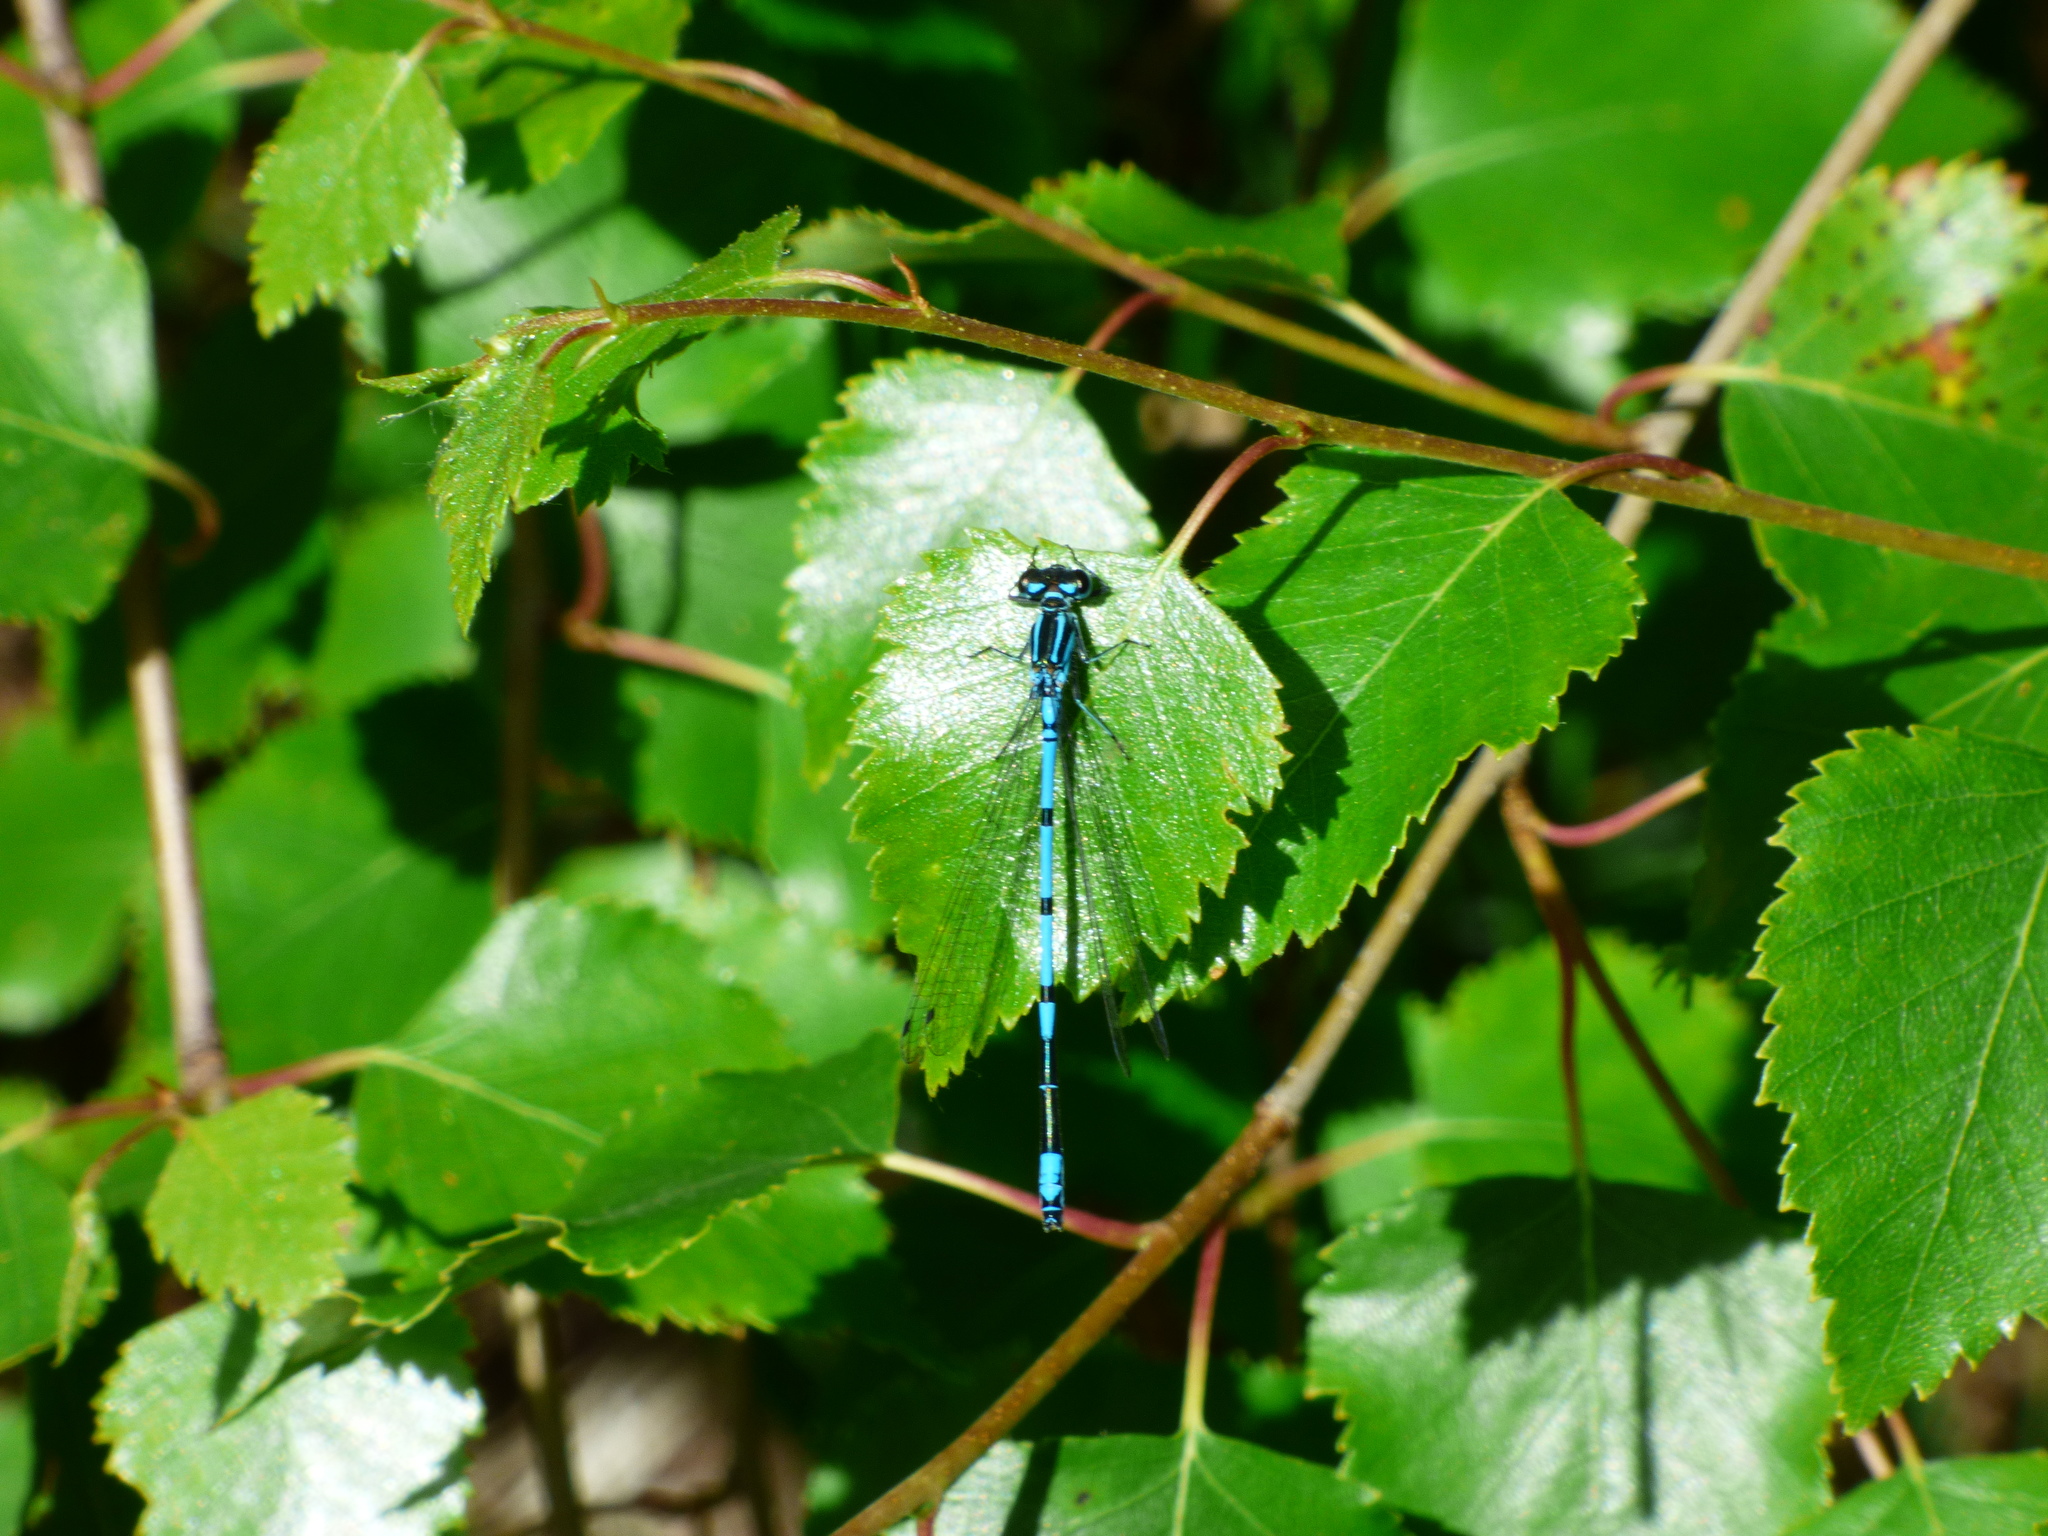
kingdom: Animalia
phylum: Arthropoda
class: Insecta
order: Odonata
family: Coenagrionidae
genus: Coenagrion
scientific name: Coenagrion puella
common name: Azure damselfly
